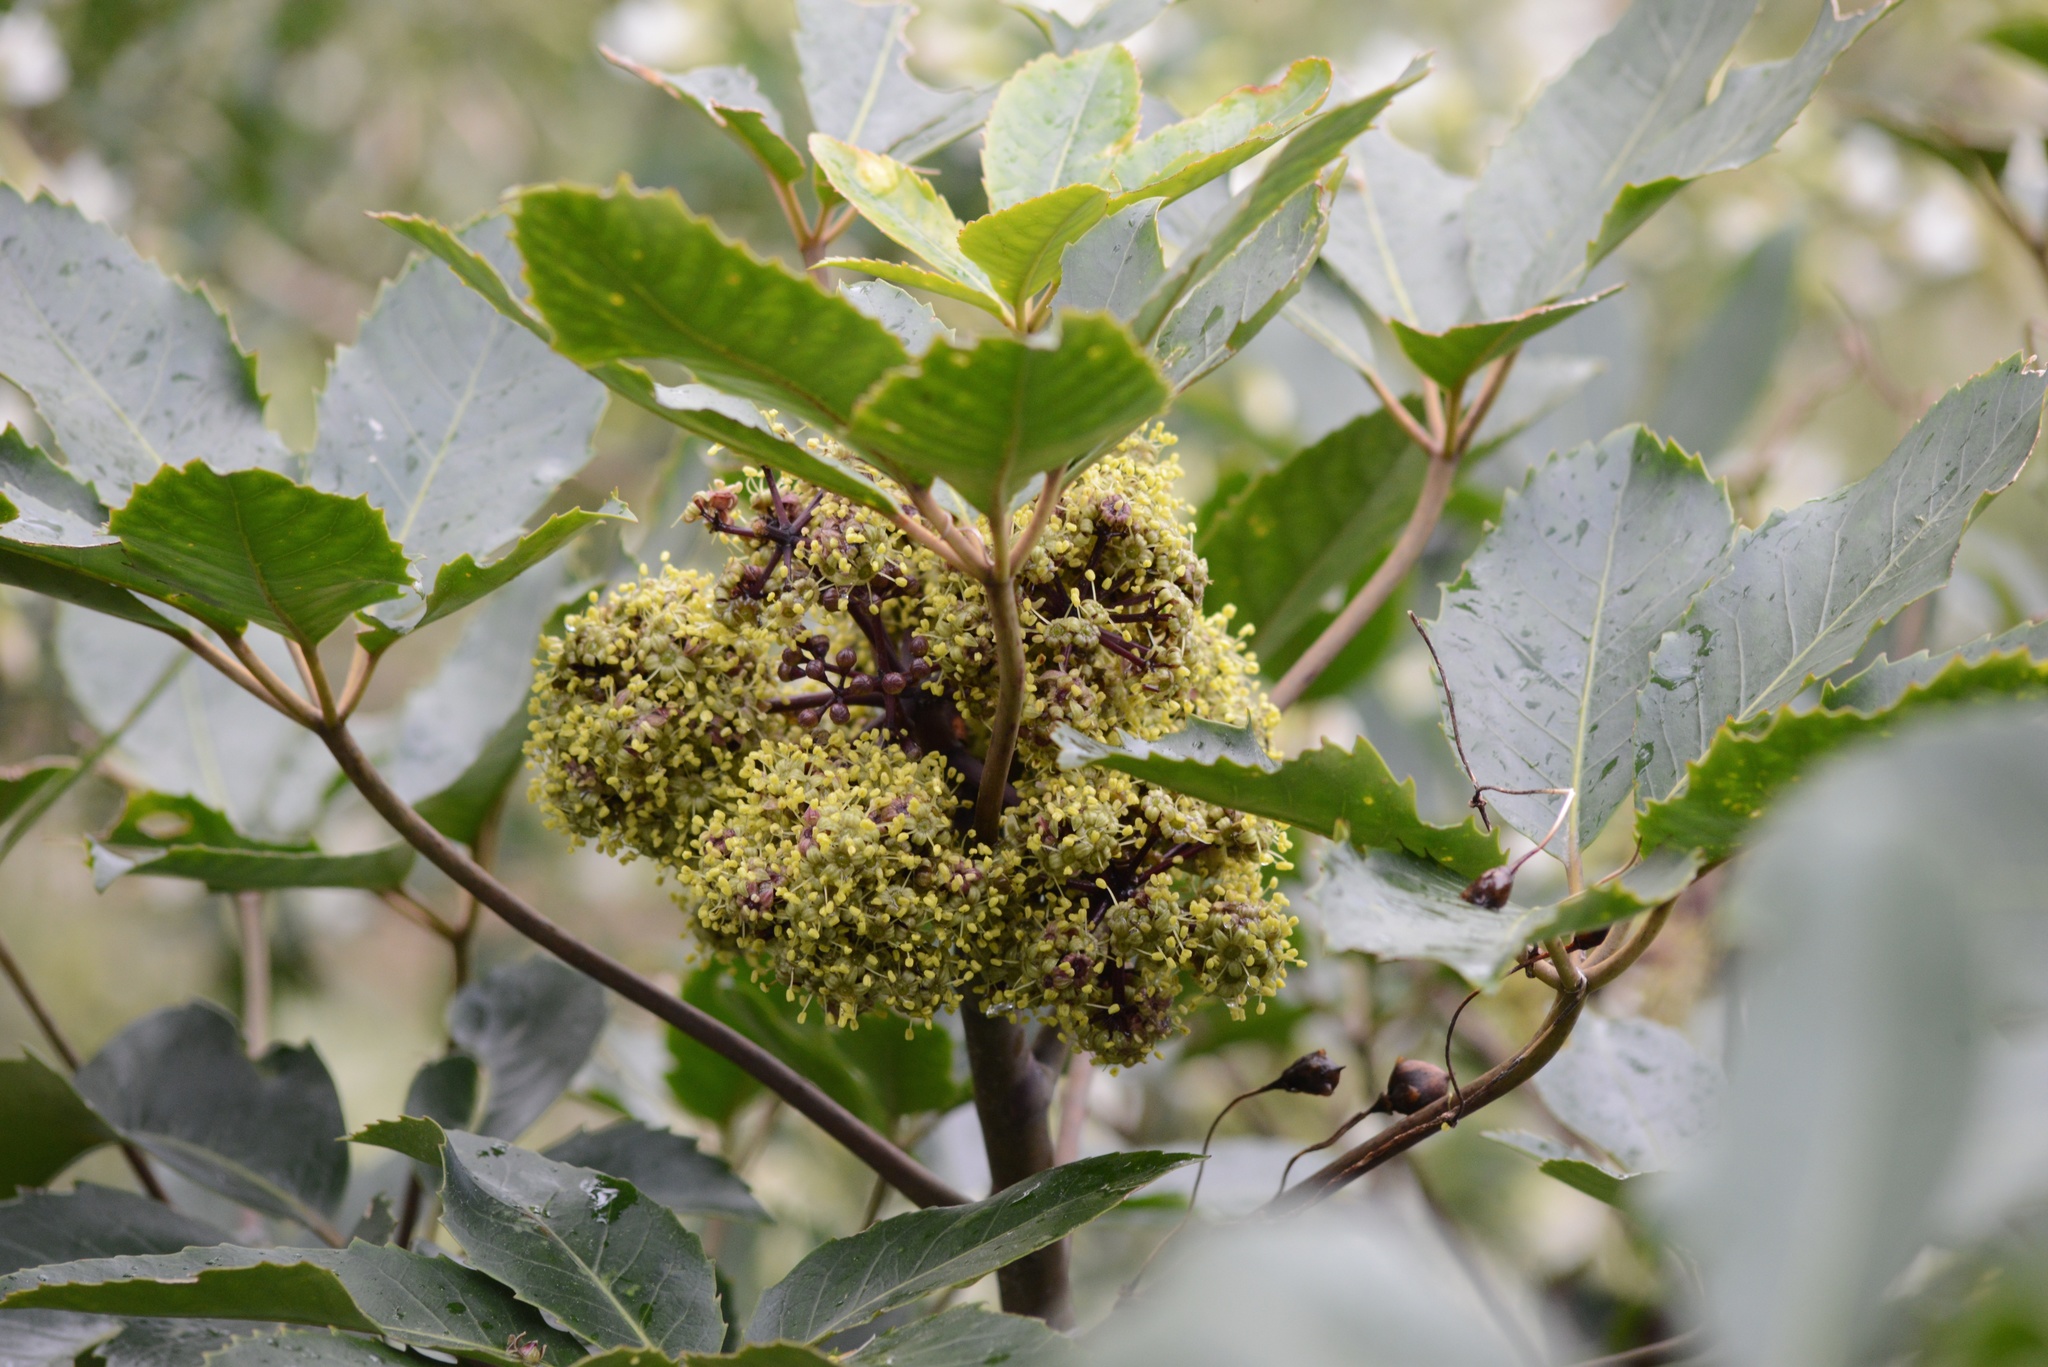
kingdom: Plantae
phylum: Tracheophyta
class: Magnoliopsida
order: Apiales
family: Araliaceae
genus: Neopanax
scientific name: Neopanax arboreus
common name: Five-fingers
